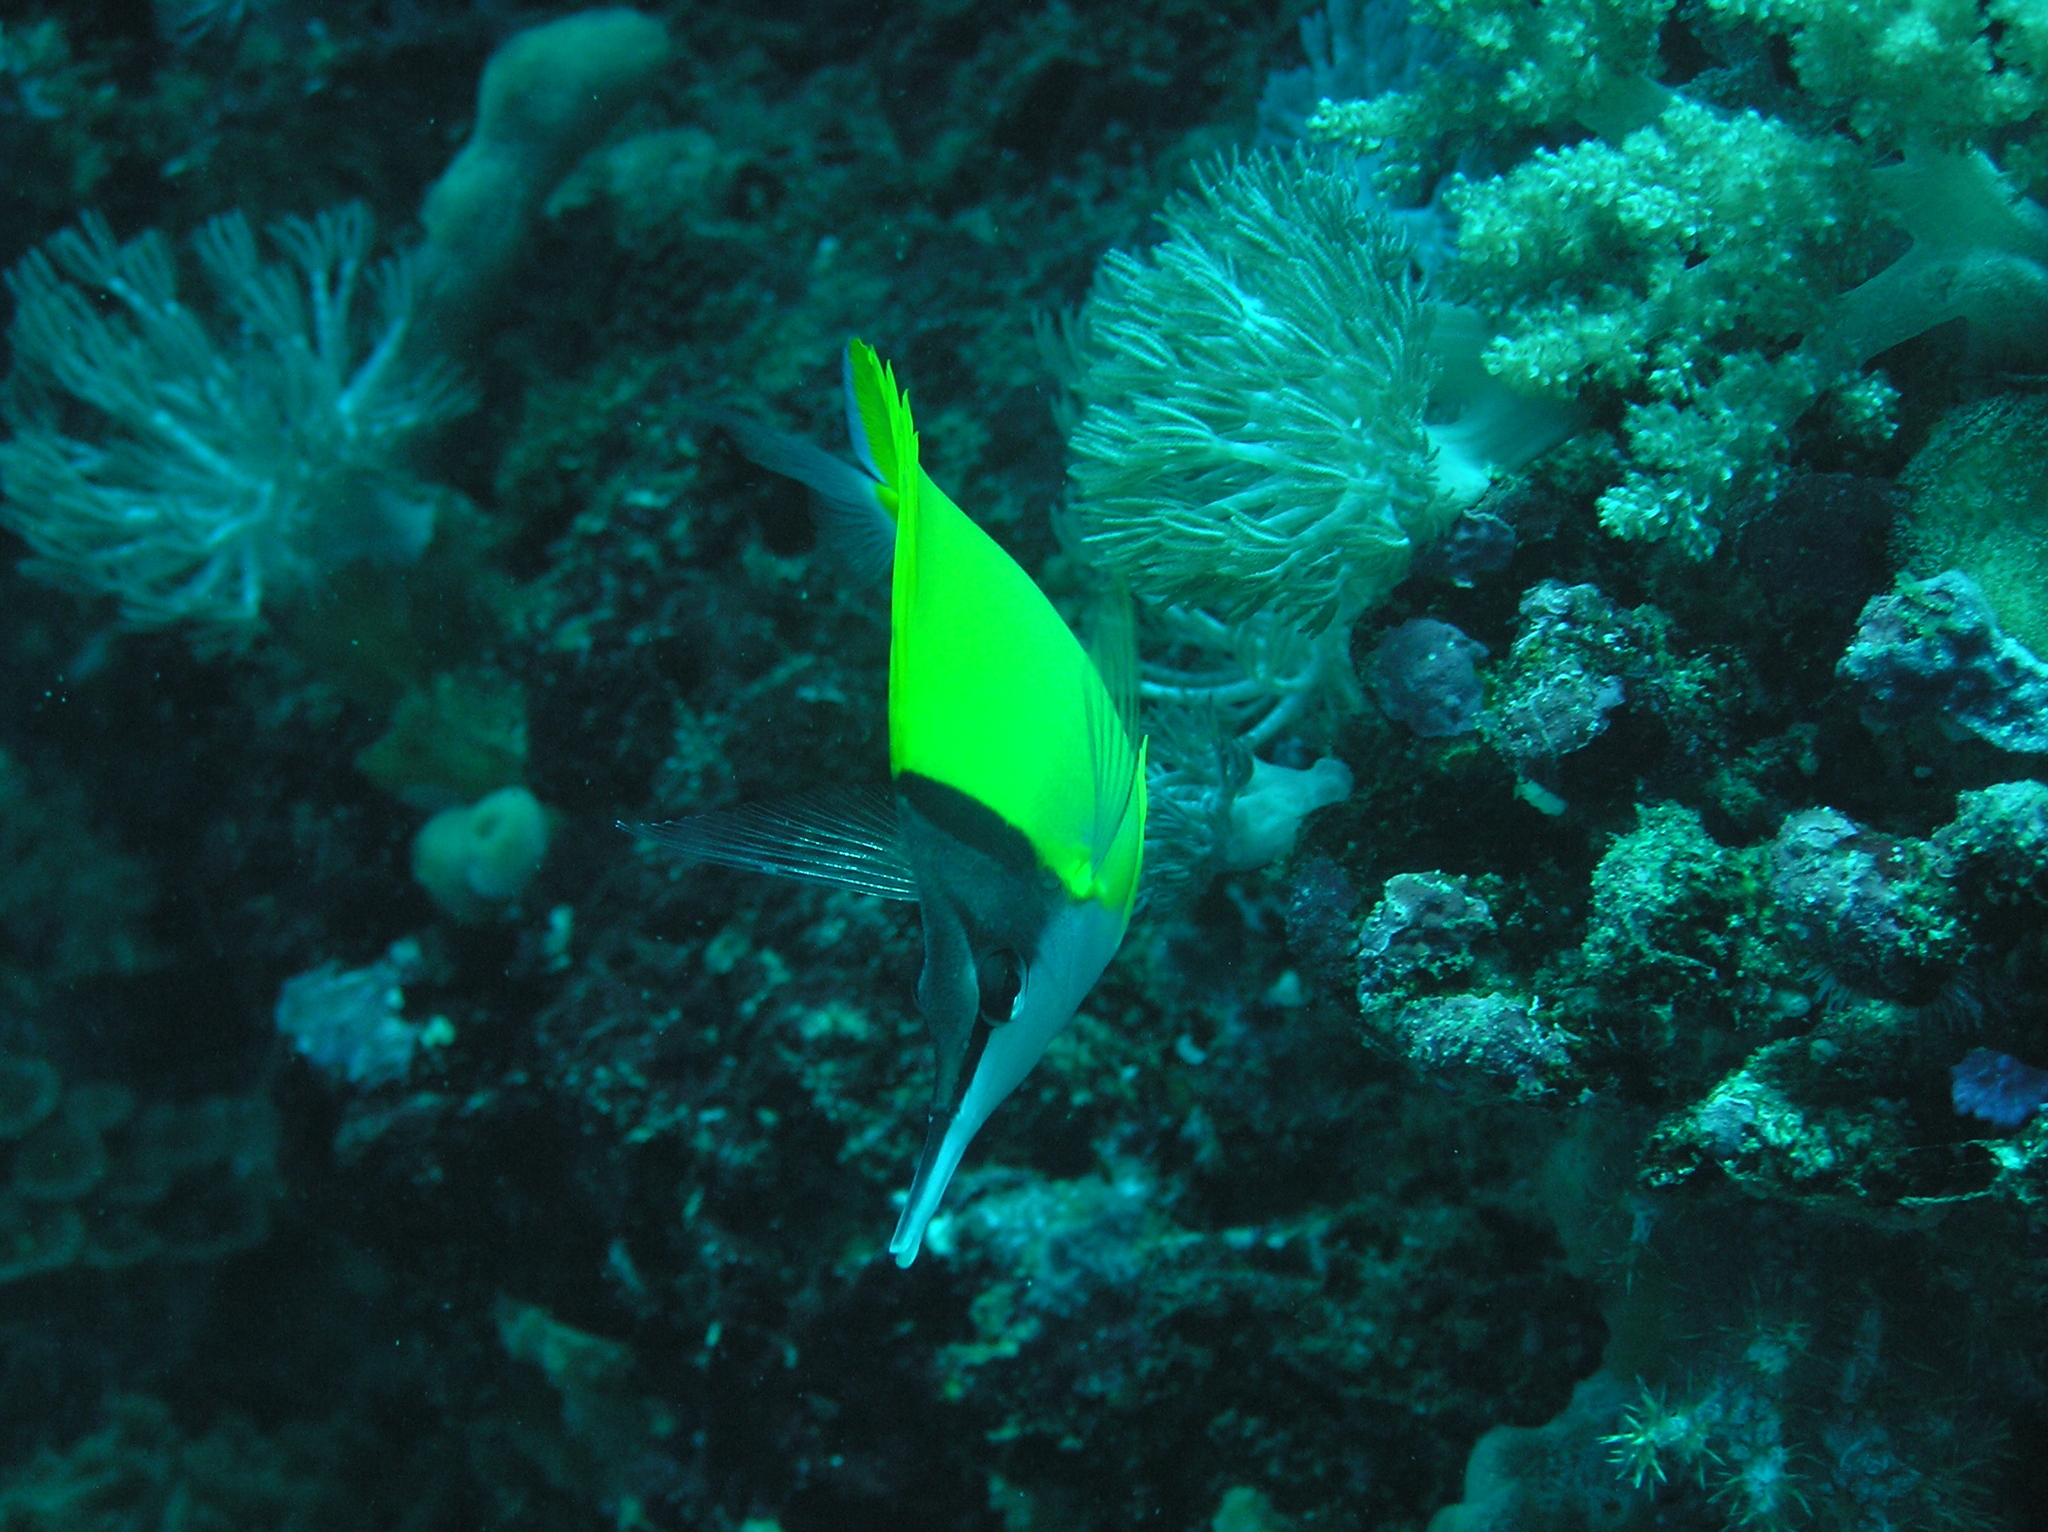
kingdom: Animalia
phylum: Chordata
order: Perciformes
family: Chaetodontidae
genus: Forcipiger
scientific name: Forcipiger flavissimus
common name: Forcepsfish
